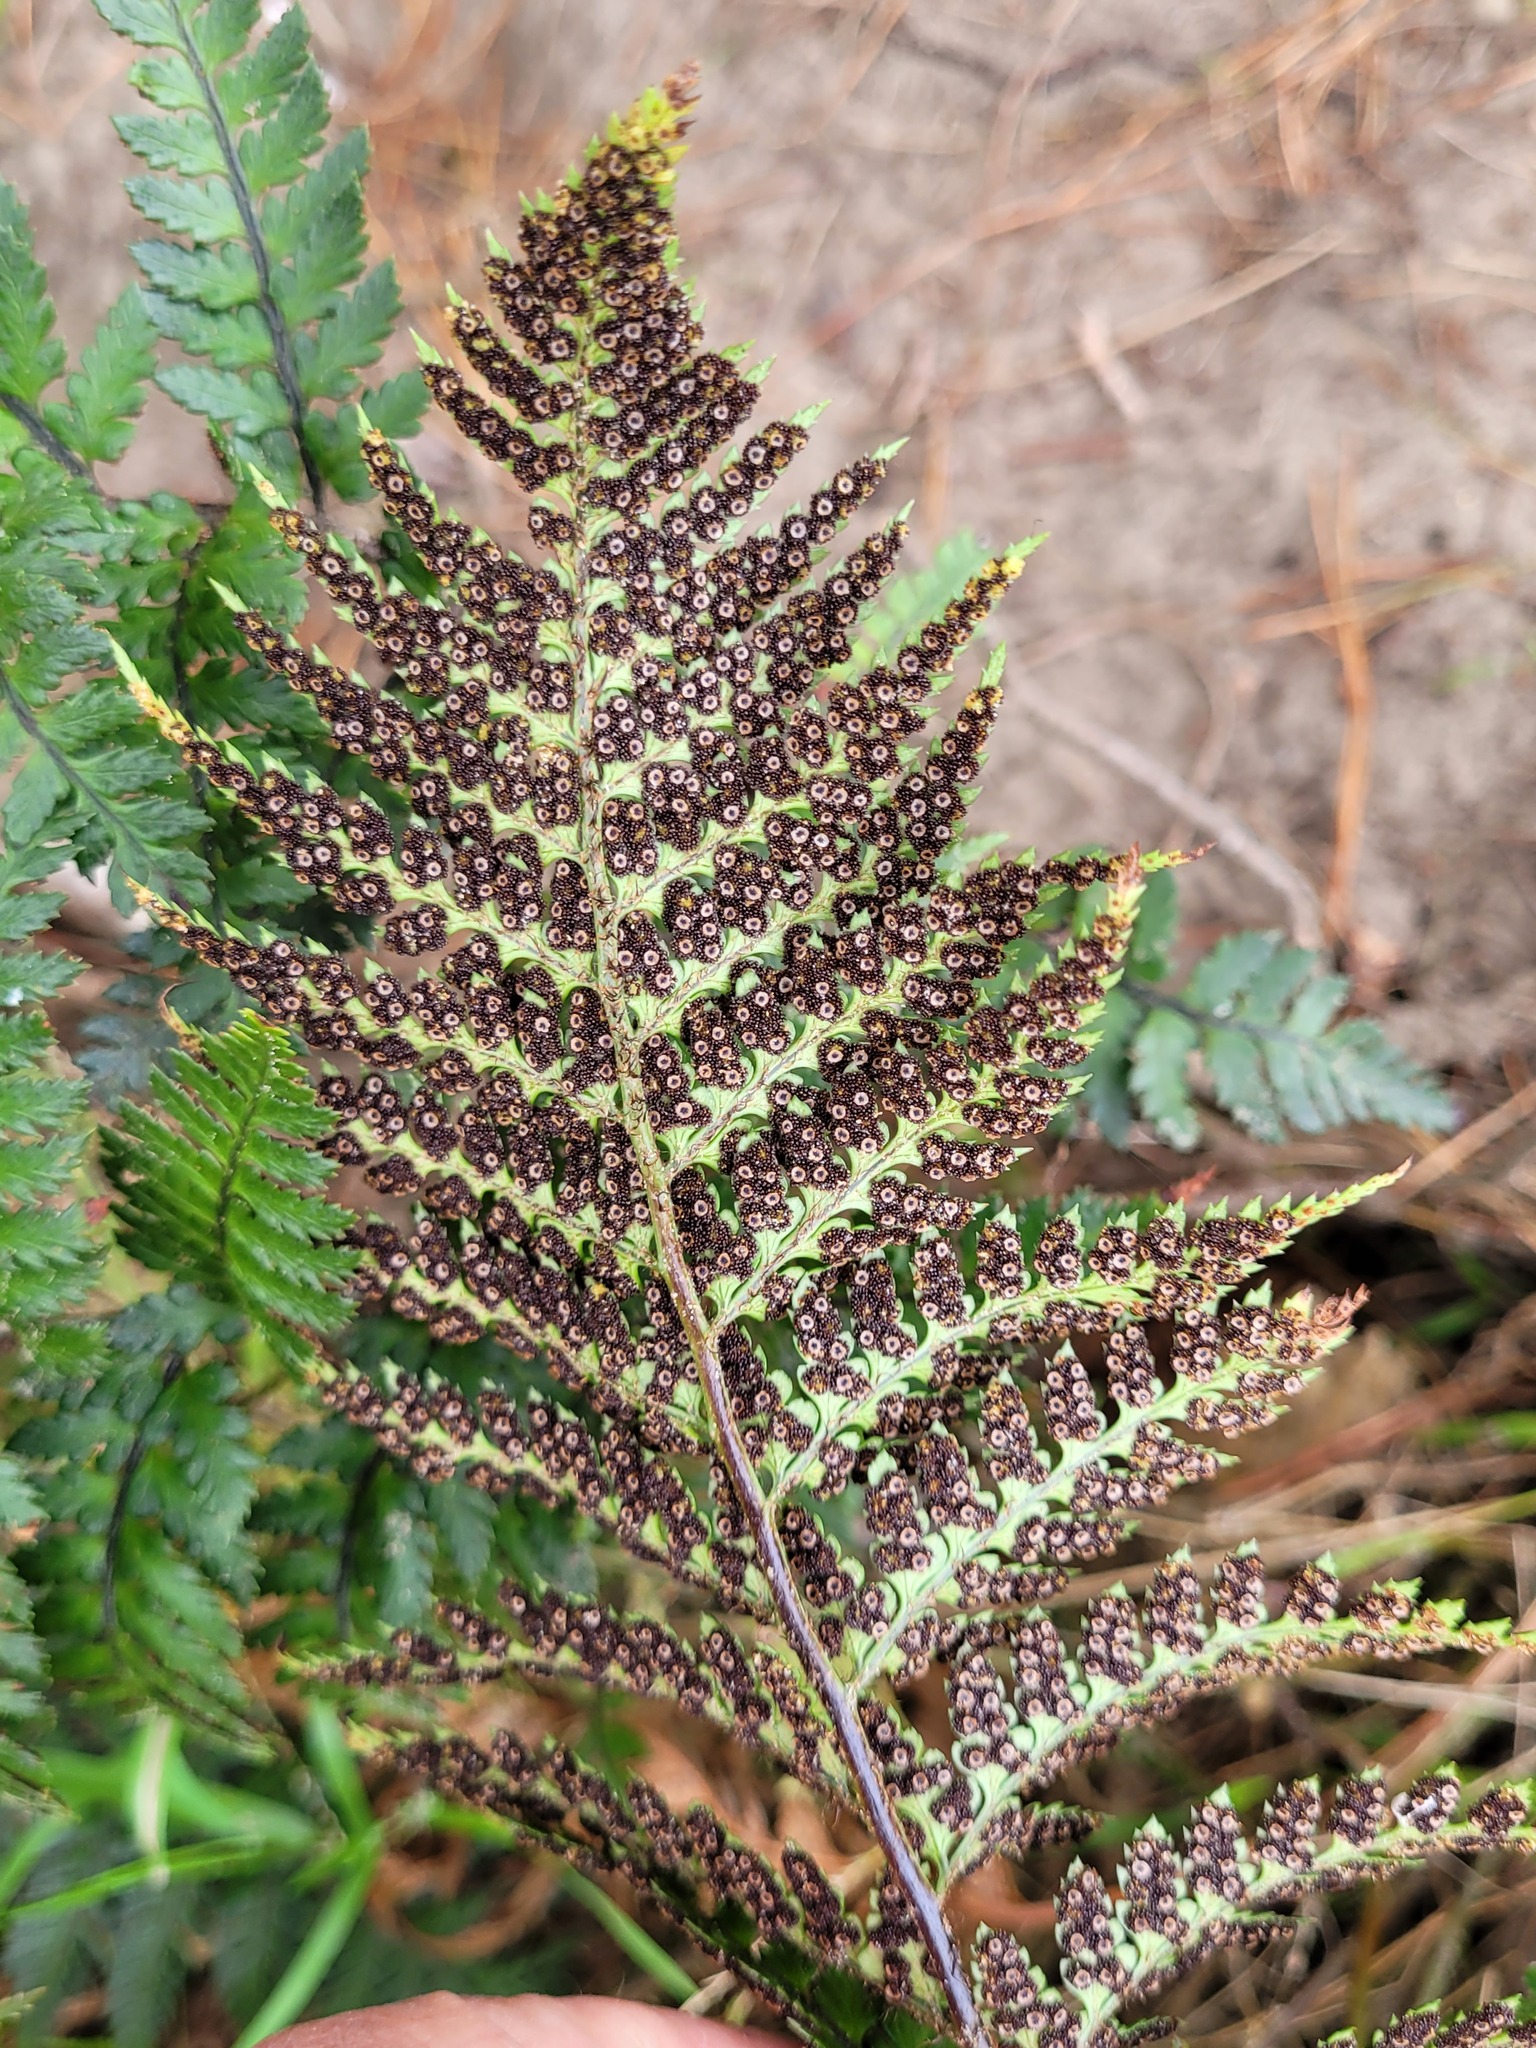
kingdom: Plantae
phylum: Tracheophyta
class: Polypodiopsida
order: Polypodiales
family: Dryopteridaceae
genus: Polystichum
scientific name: Polystichum neozelandicum
